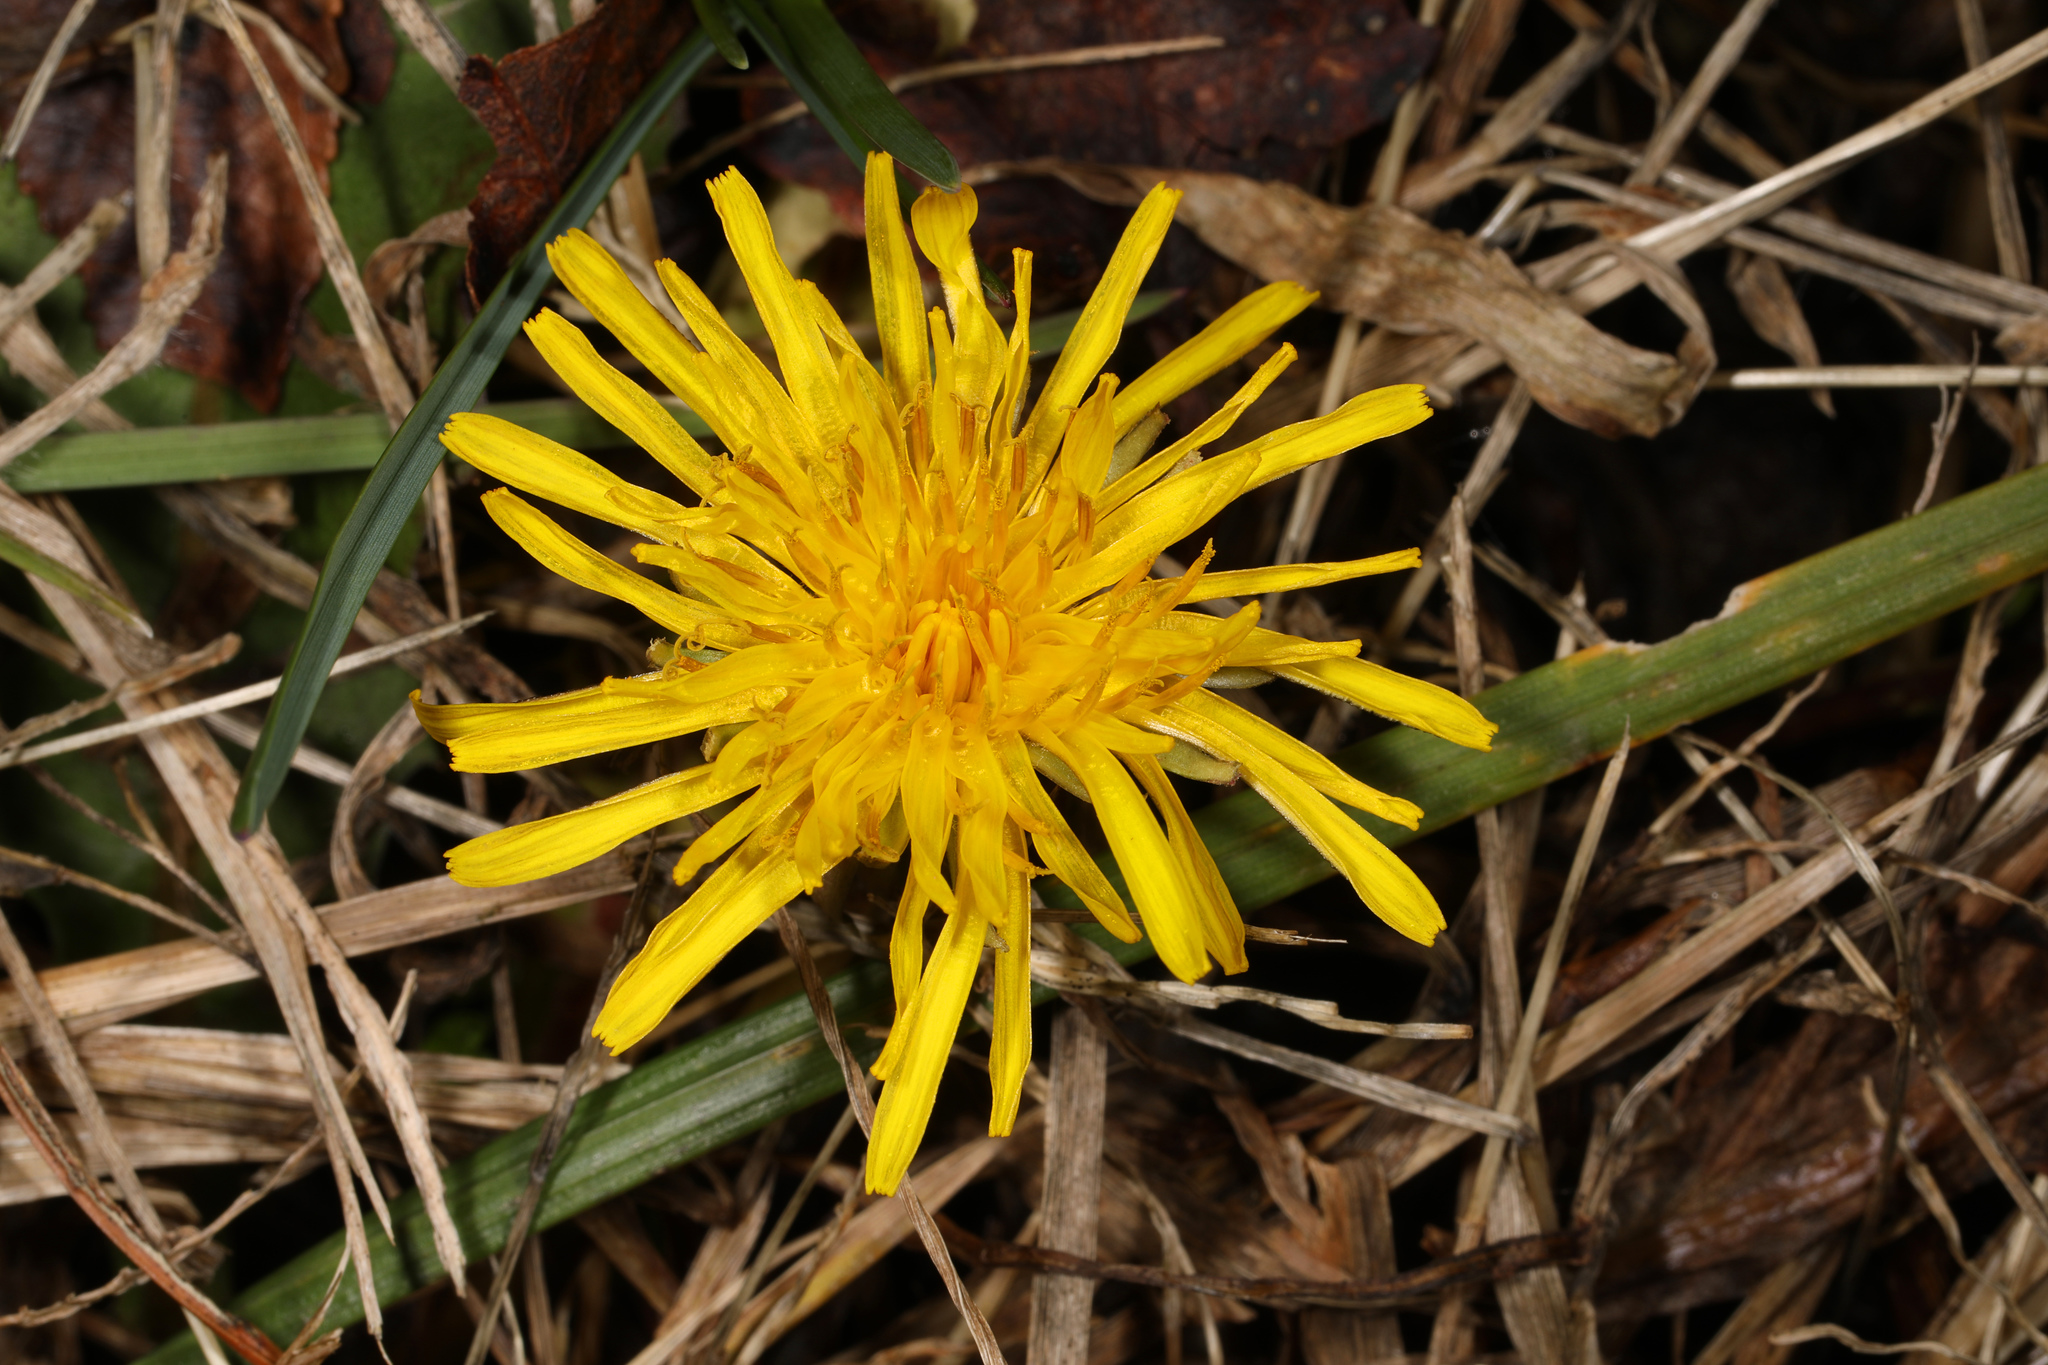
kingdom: Plantae
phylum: Tracheophyta
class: Magnoliopsida
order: Asterales
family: Asteraceae
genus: Taraxacum
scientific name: Taraxacum officinale
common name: Common dandelion
